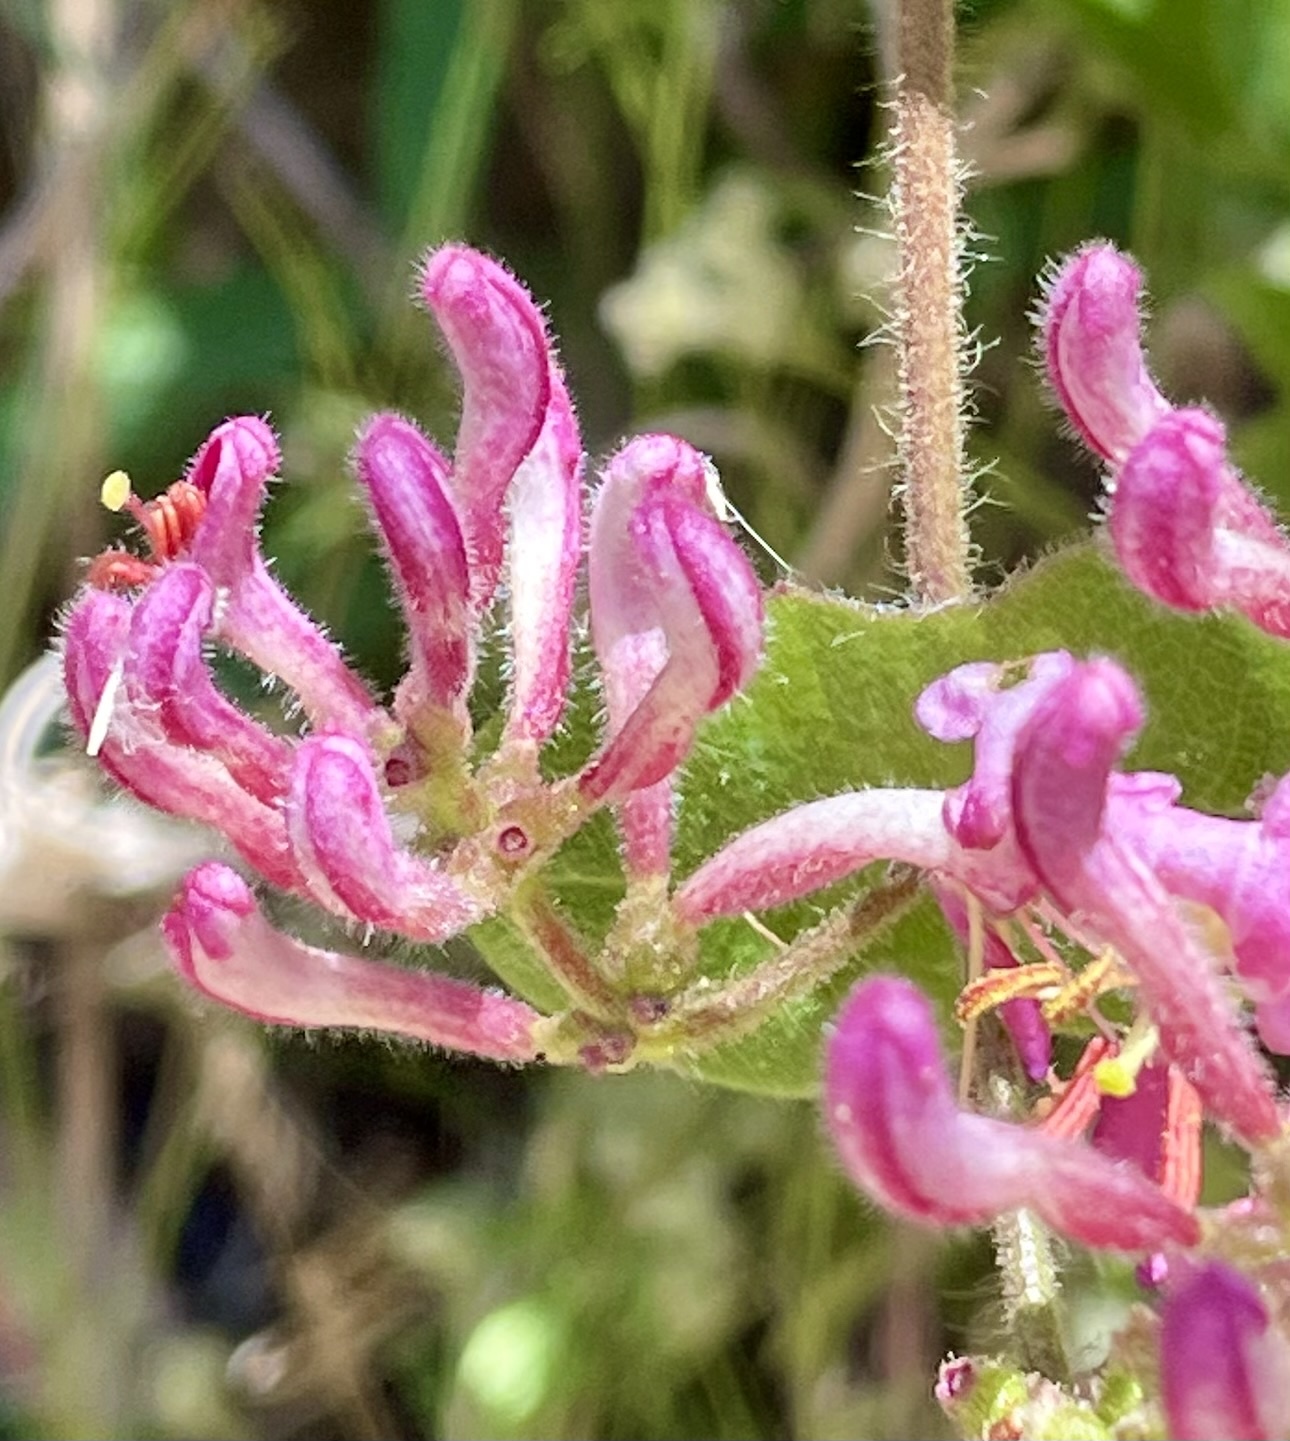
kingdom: Plantae
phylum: Tracheophyta
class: Magnoliopsida
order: Dipsacales
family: Caprifoliaceae
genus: Lonicera
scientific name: Lonicera hispidula
